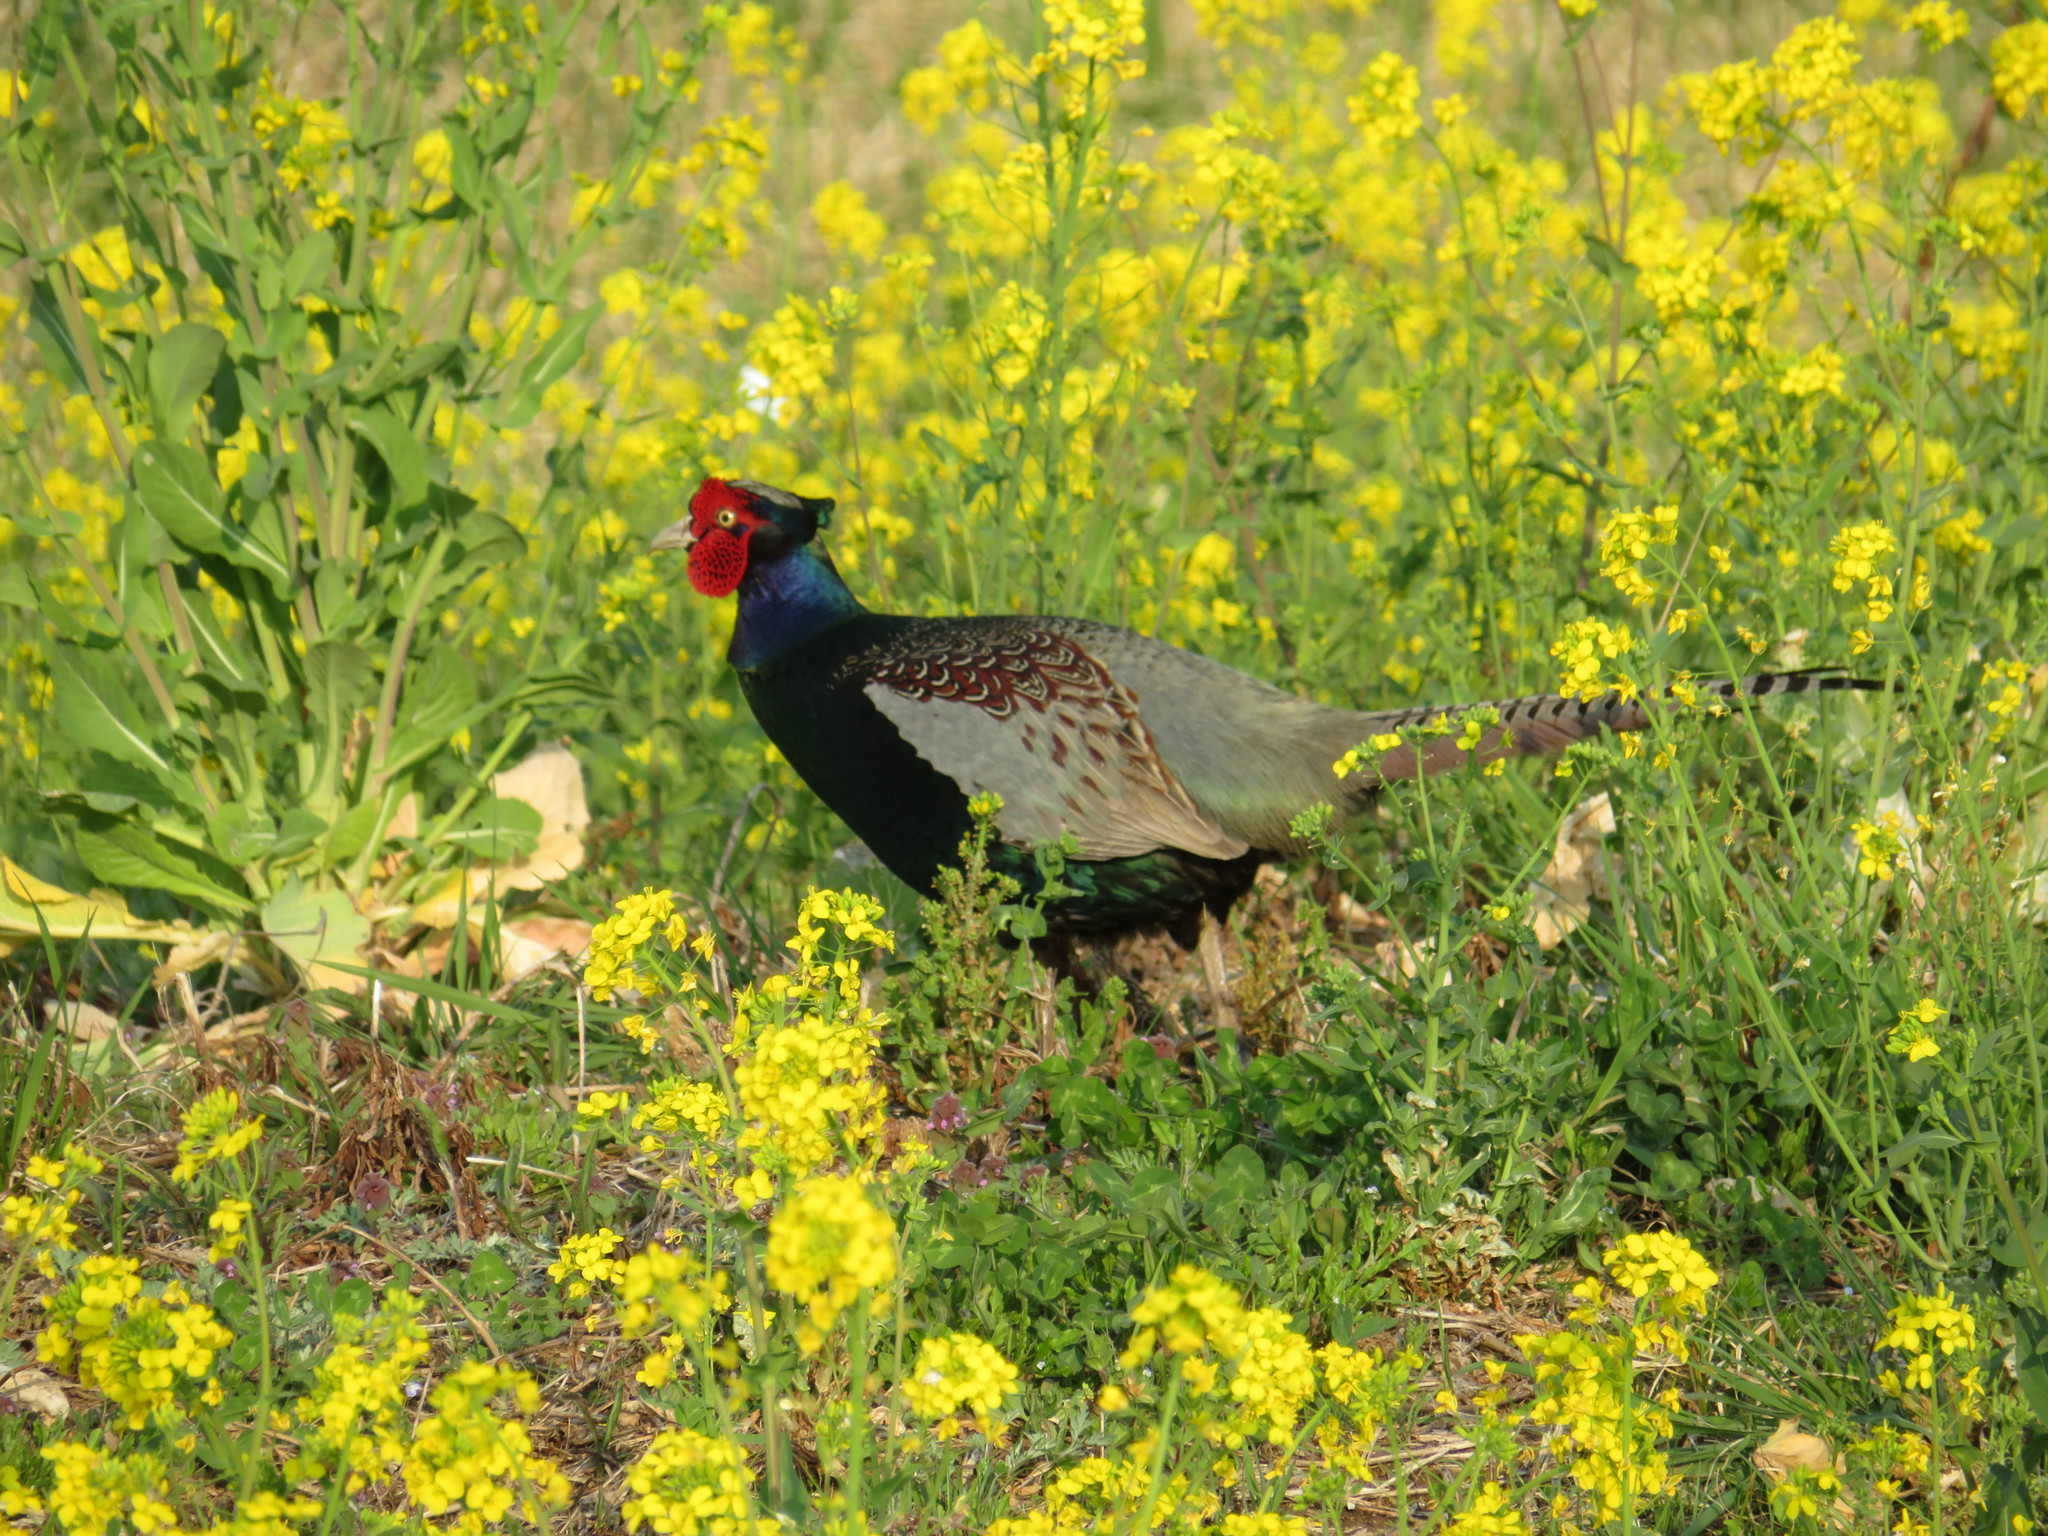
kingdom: Animalia
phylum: Chordata
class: Aves
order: Galliformes
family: Phasianidae
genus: Phasianus
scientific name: Phasianus versicolor
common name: Green pheasant
